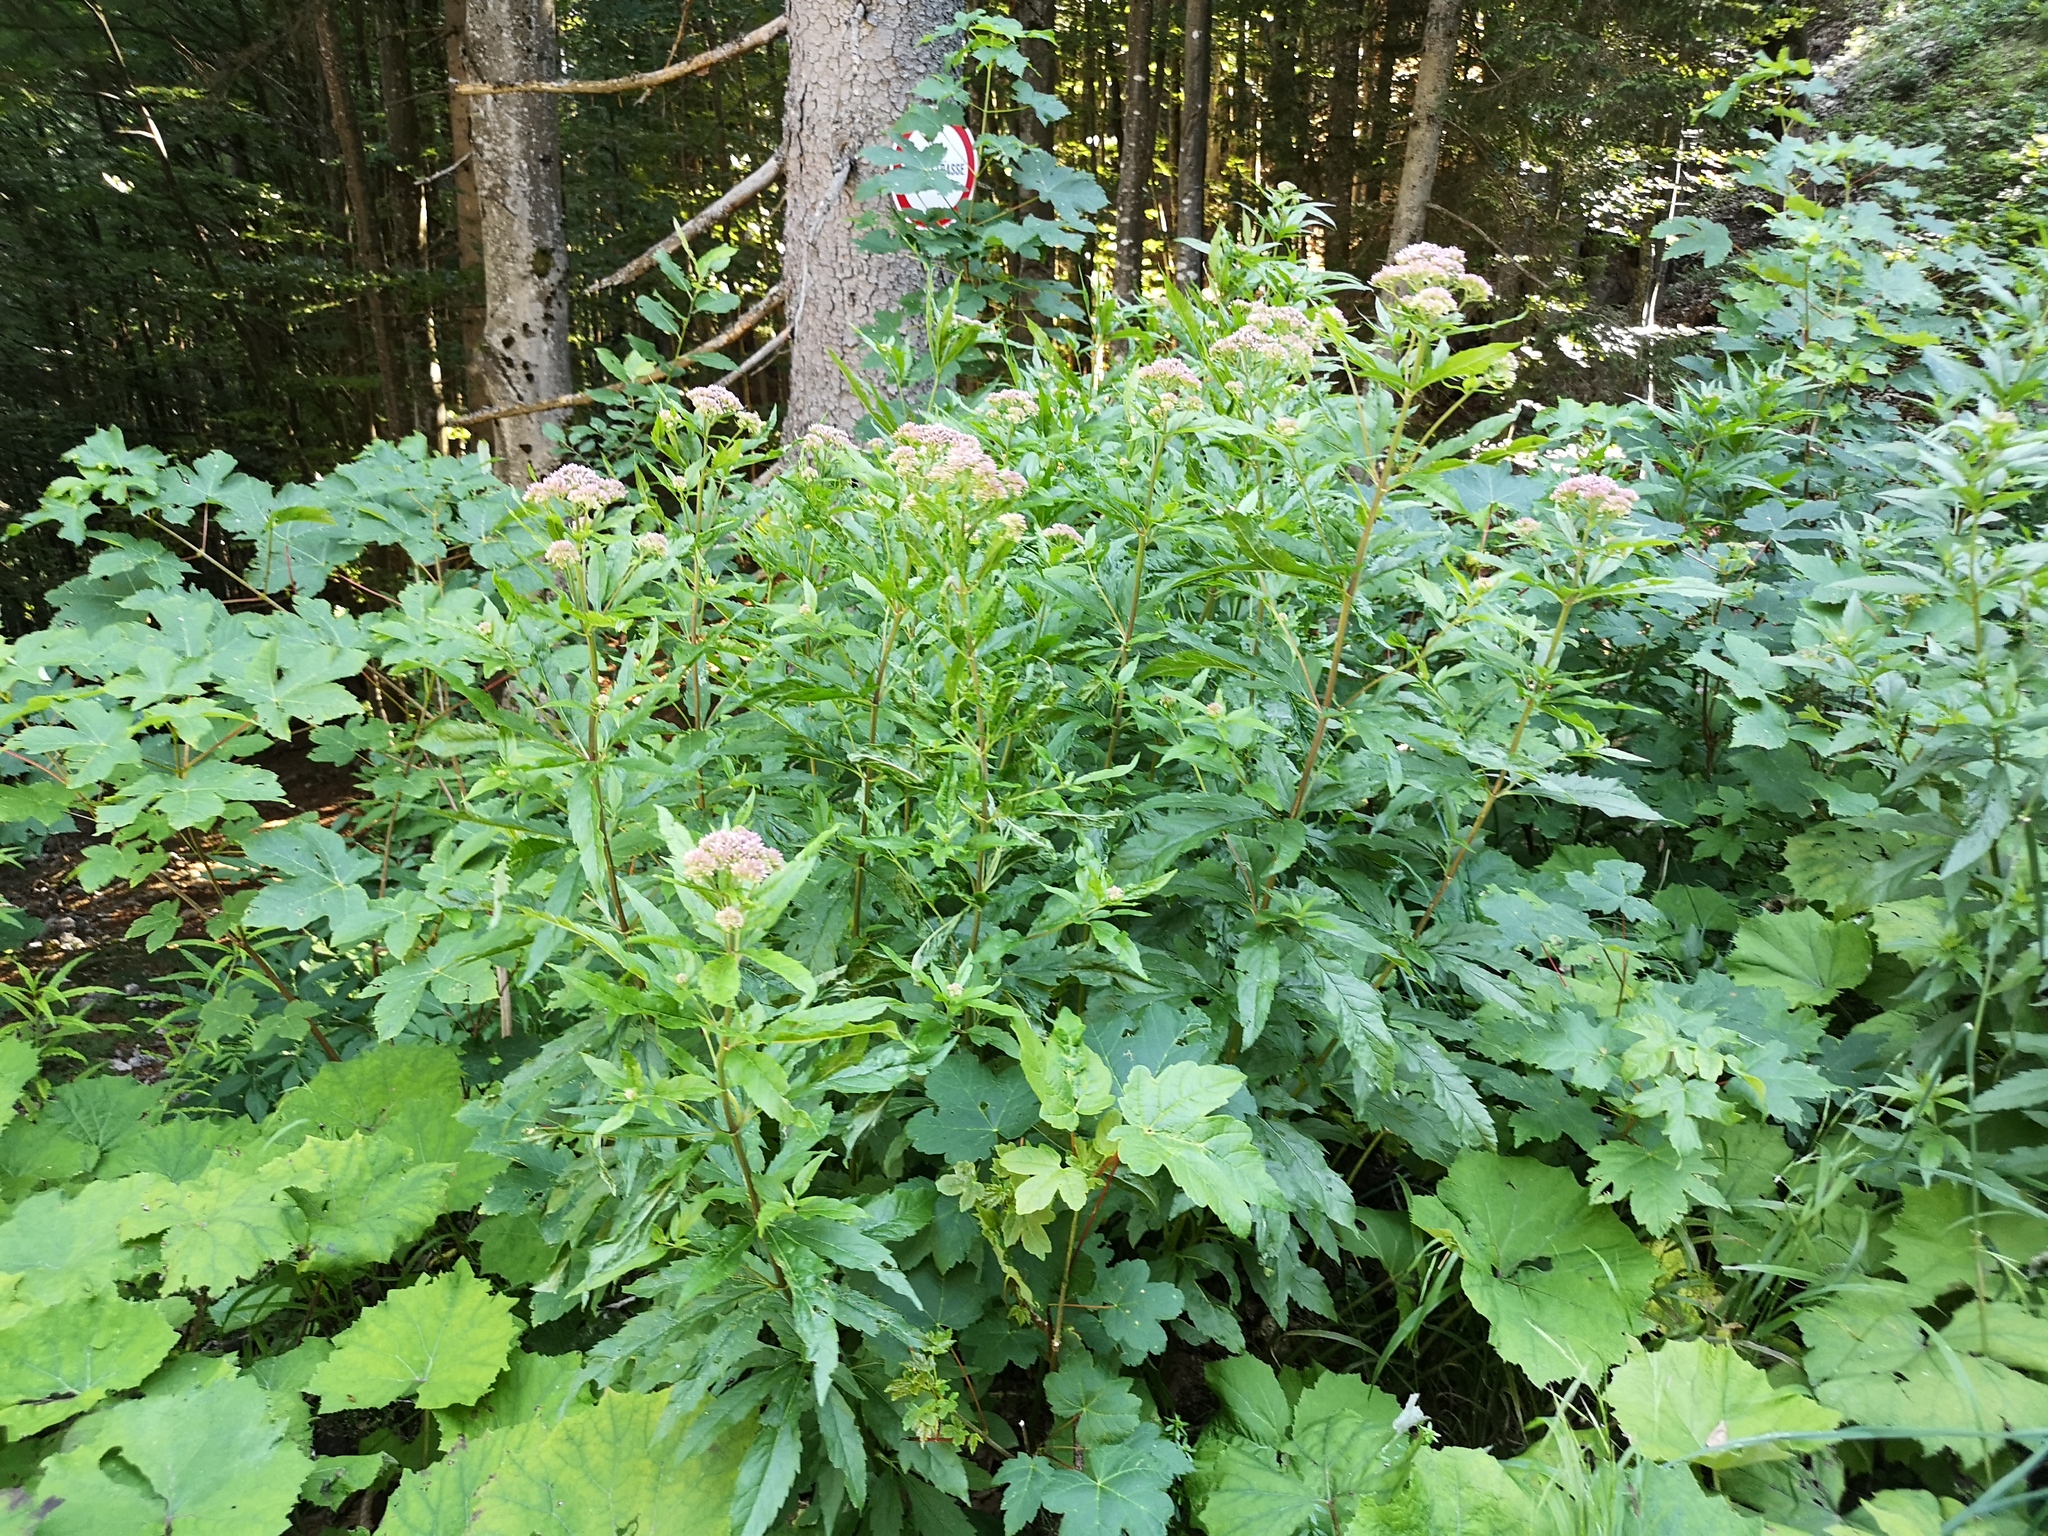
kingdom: Plantae
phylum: Tracheophyta
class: Magnoliopsida
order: Asterales
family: Asteraceae
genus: Eupatorium
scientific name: Eupatorium cannabinum
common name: Hemp-agrimony
